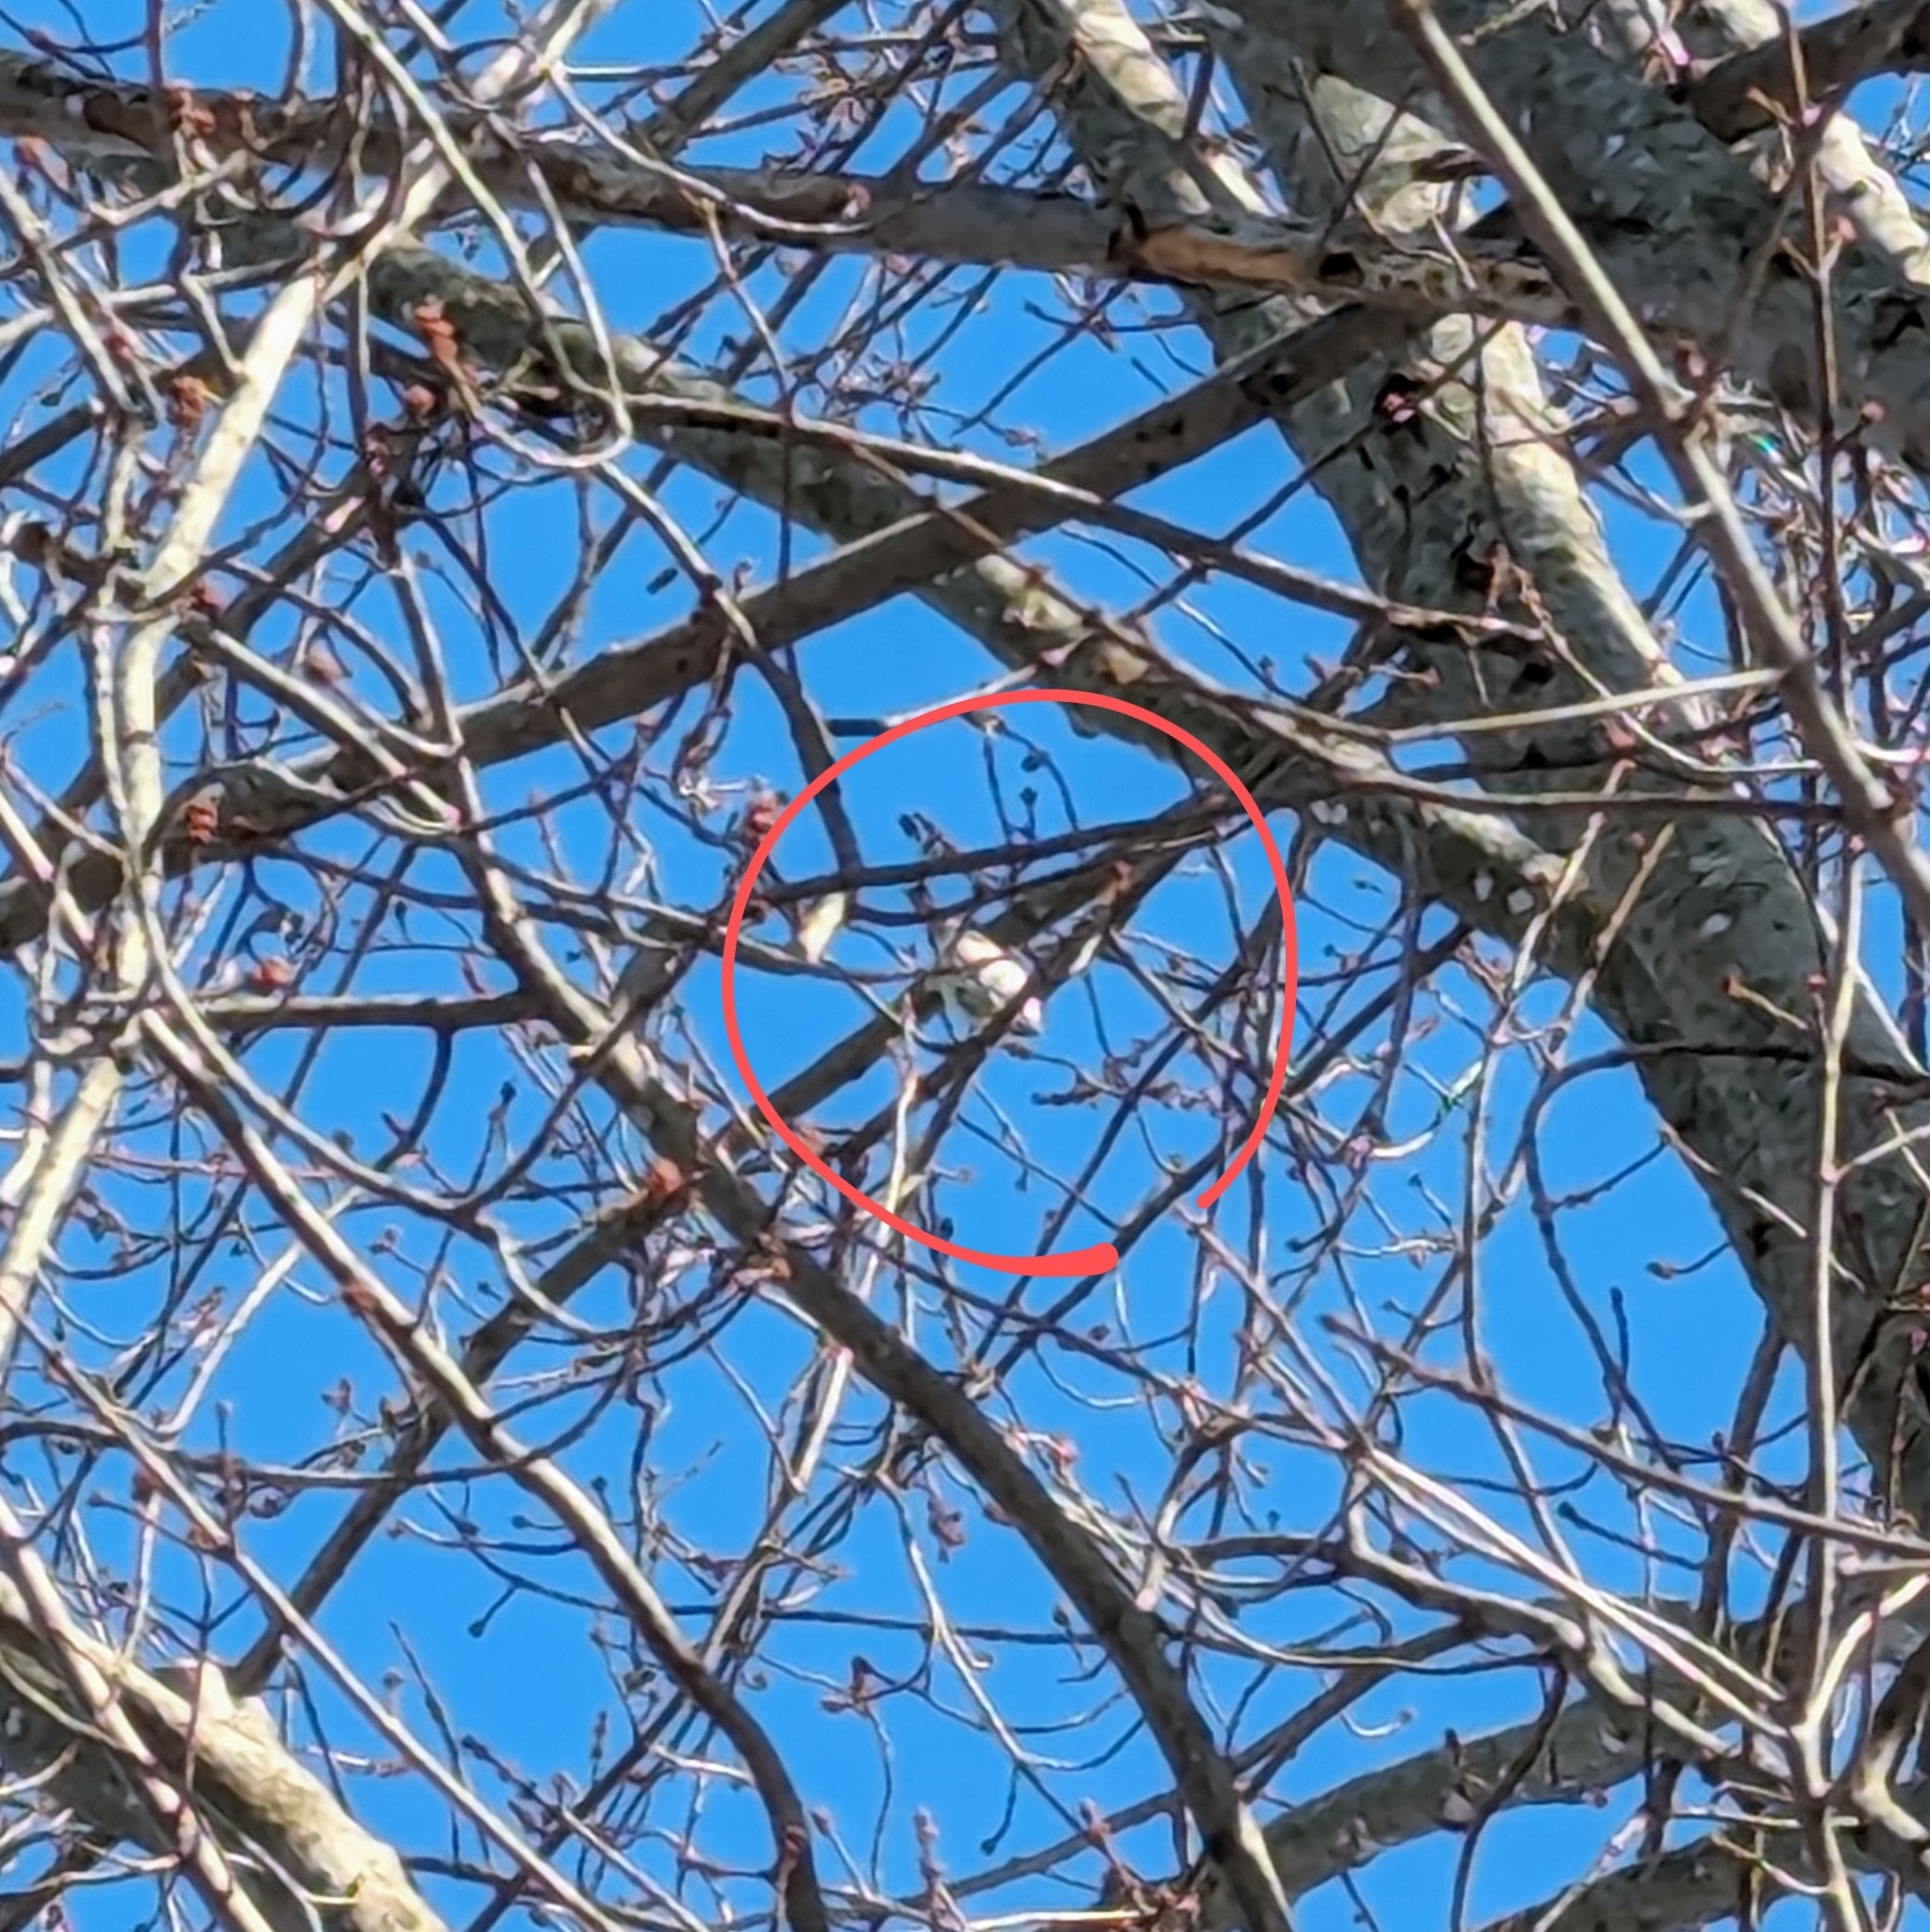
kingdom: Animalia
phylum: Chordata
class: Aves
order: Passeriformes
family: Paridae
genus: Baeolophus
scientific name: Baeolophus bicolor
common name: Tufted titmouse
